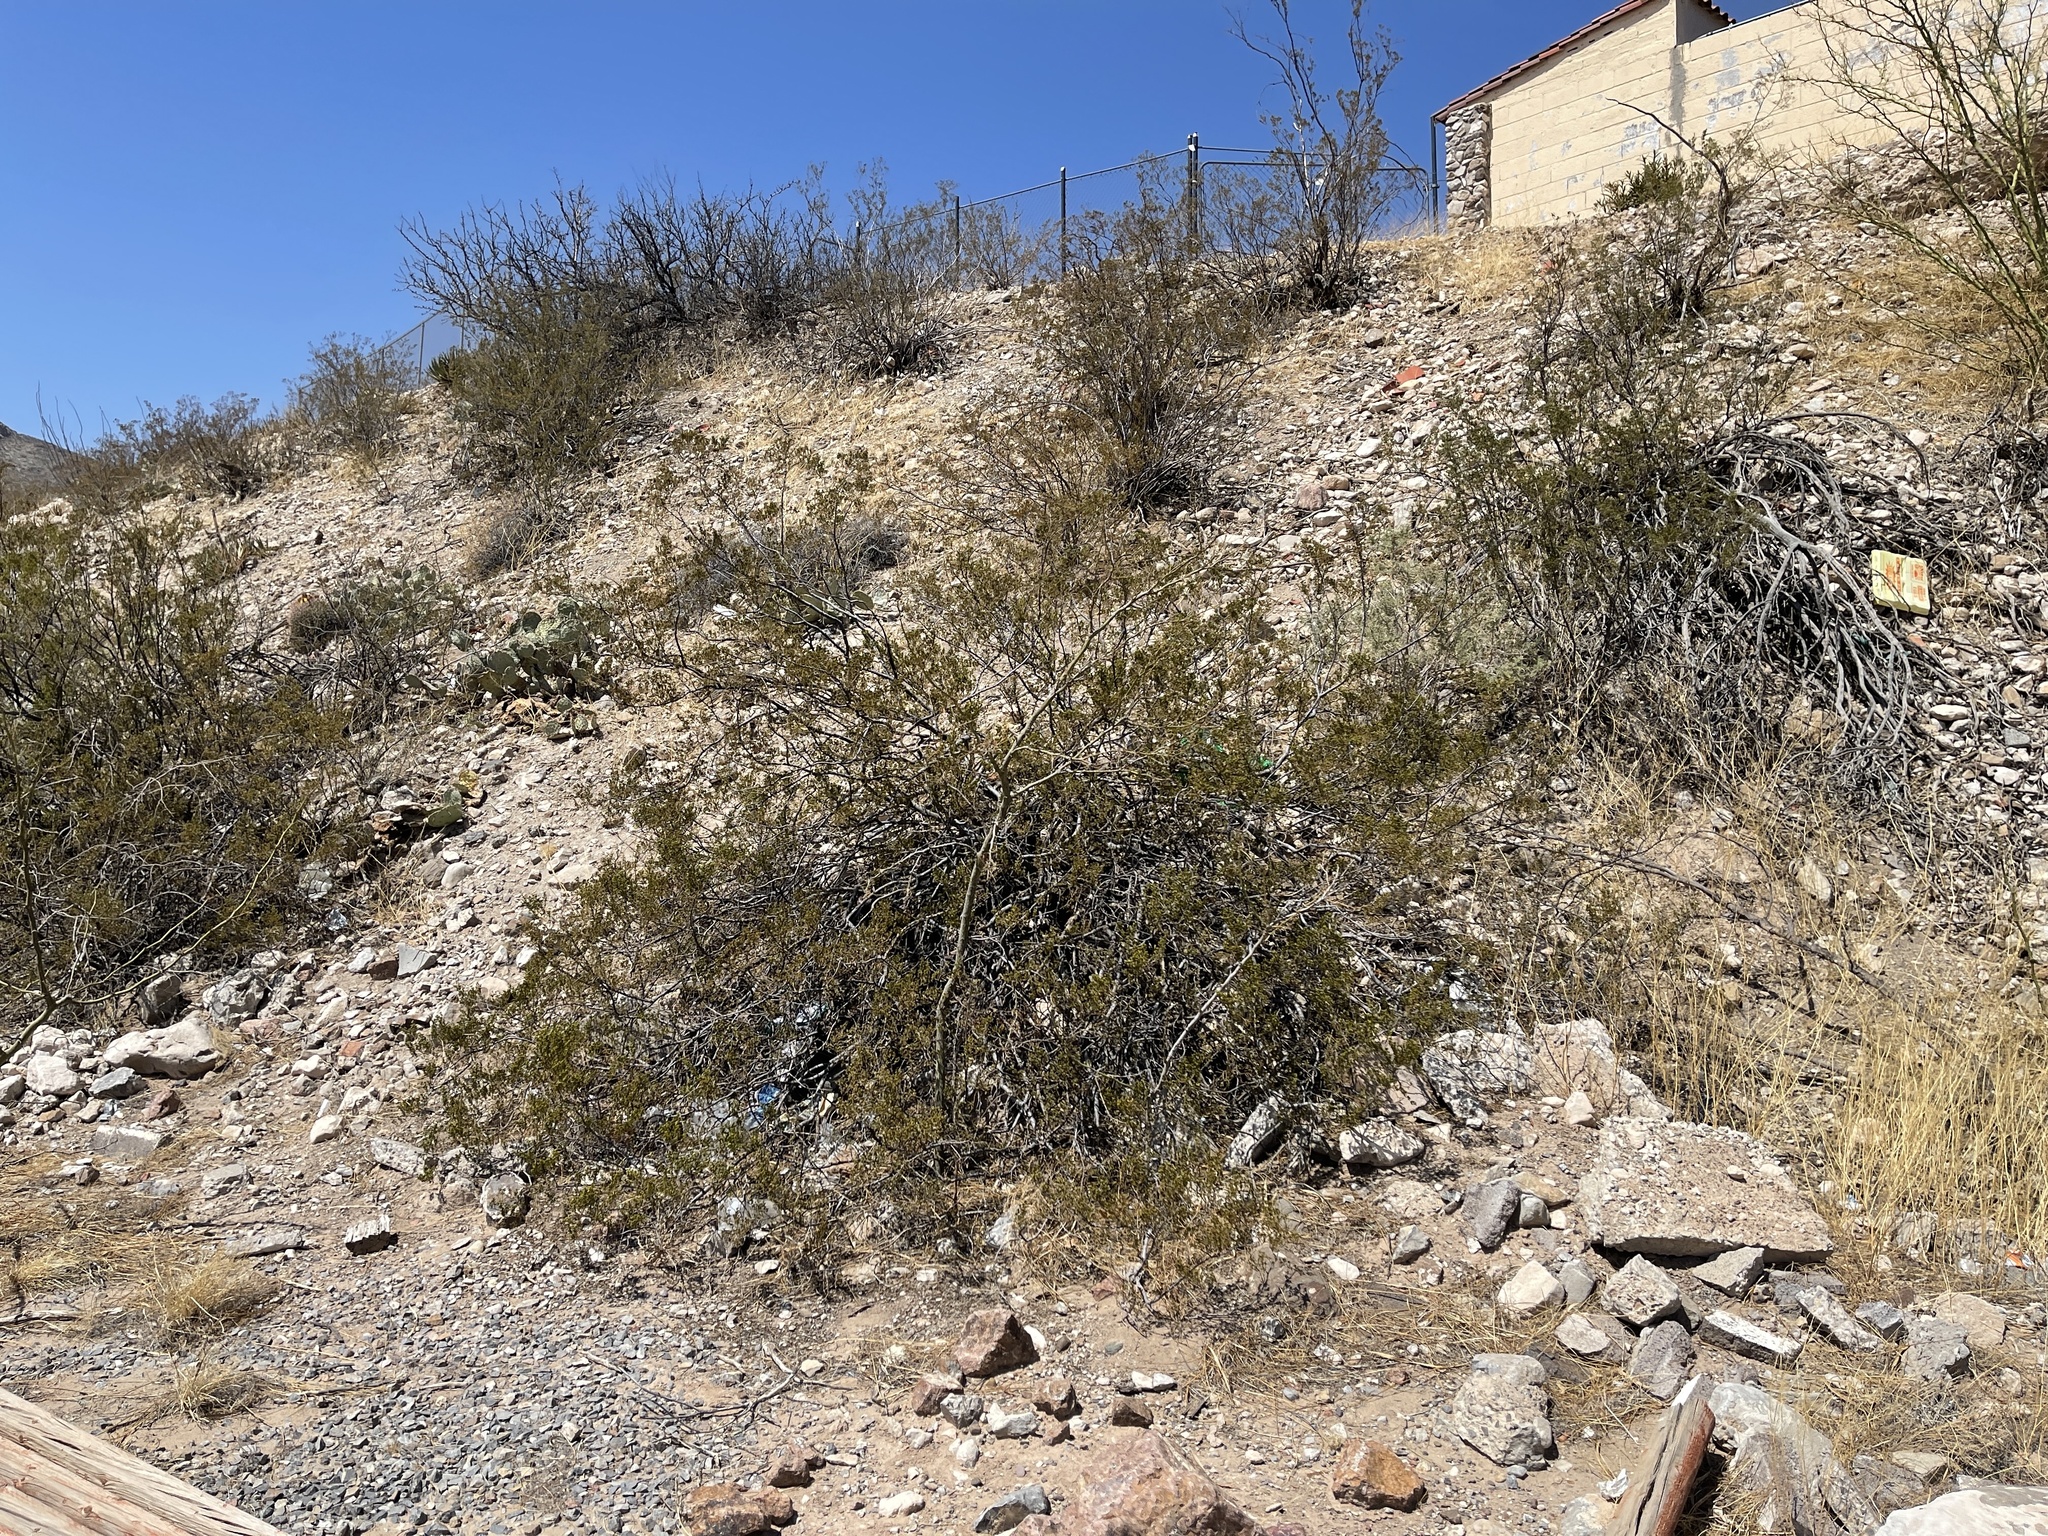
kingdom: Plantae
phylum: Tracheophyta
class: Magnoliopsida
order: Zygophyllales
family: Zygophyllaceae
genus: Larrea
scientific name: Larrea tridentata
